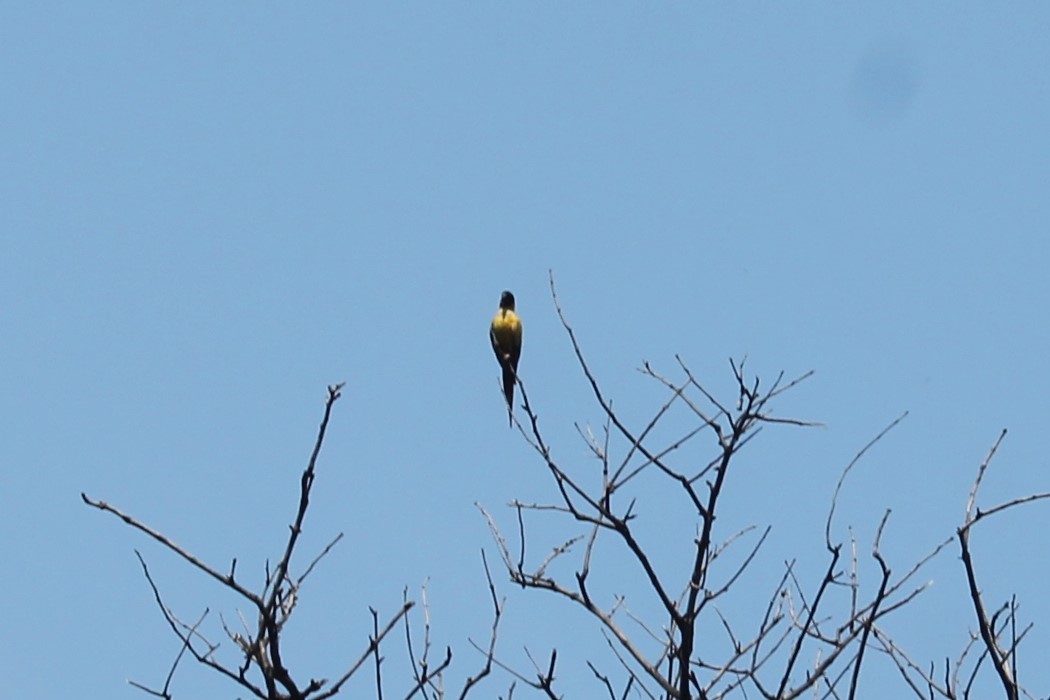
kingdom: Animalia
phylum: Chordata
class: Aves
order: Psittaciformes
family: Psittacidae
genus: Nandayus
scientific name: Nandayus nenday
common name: Nanday parakeet
